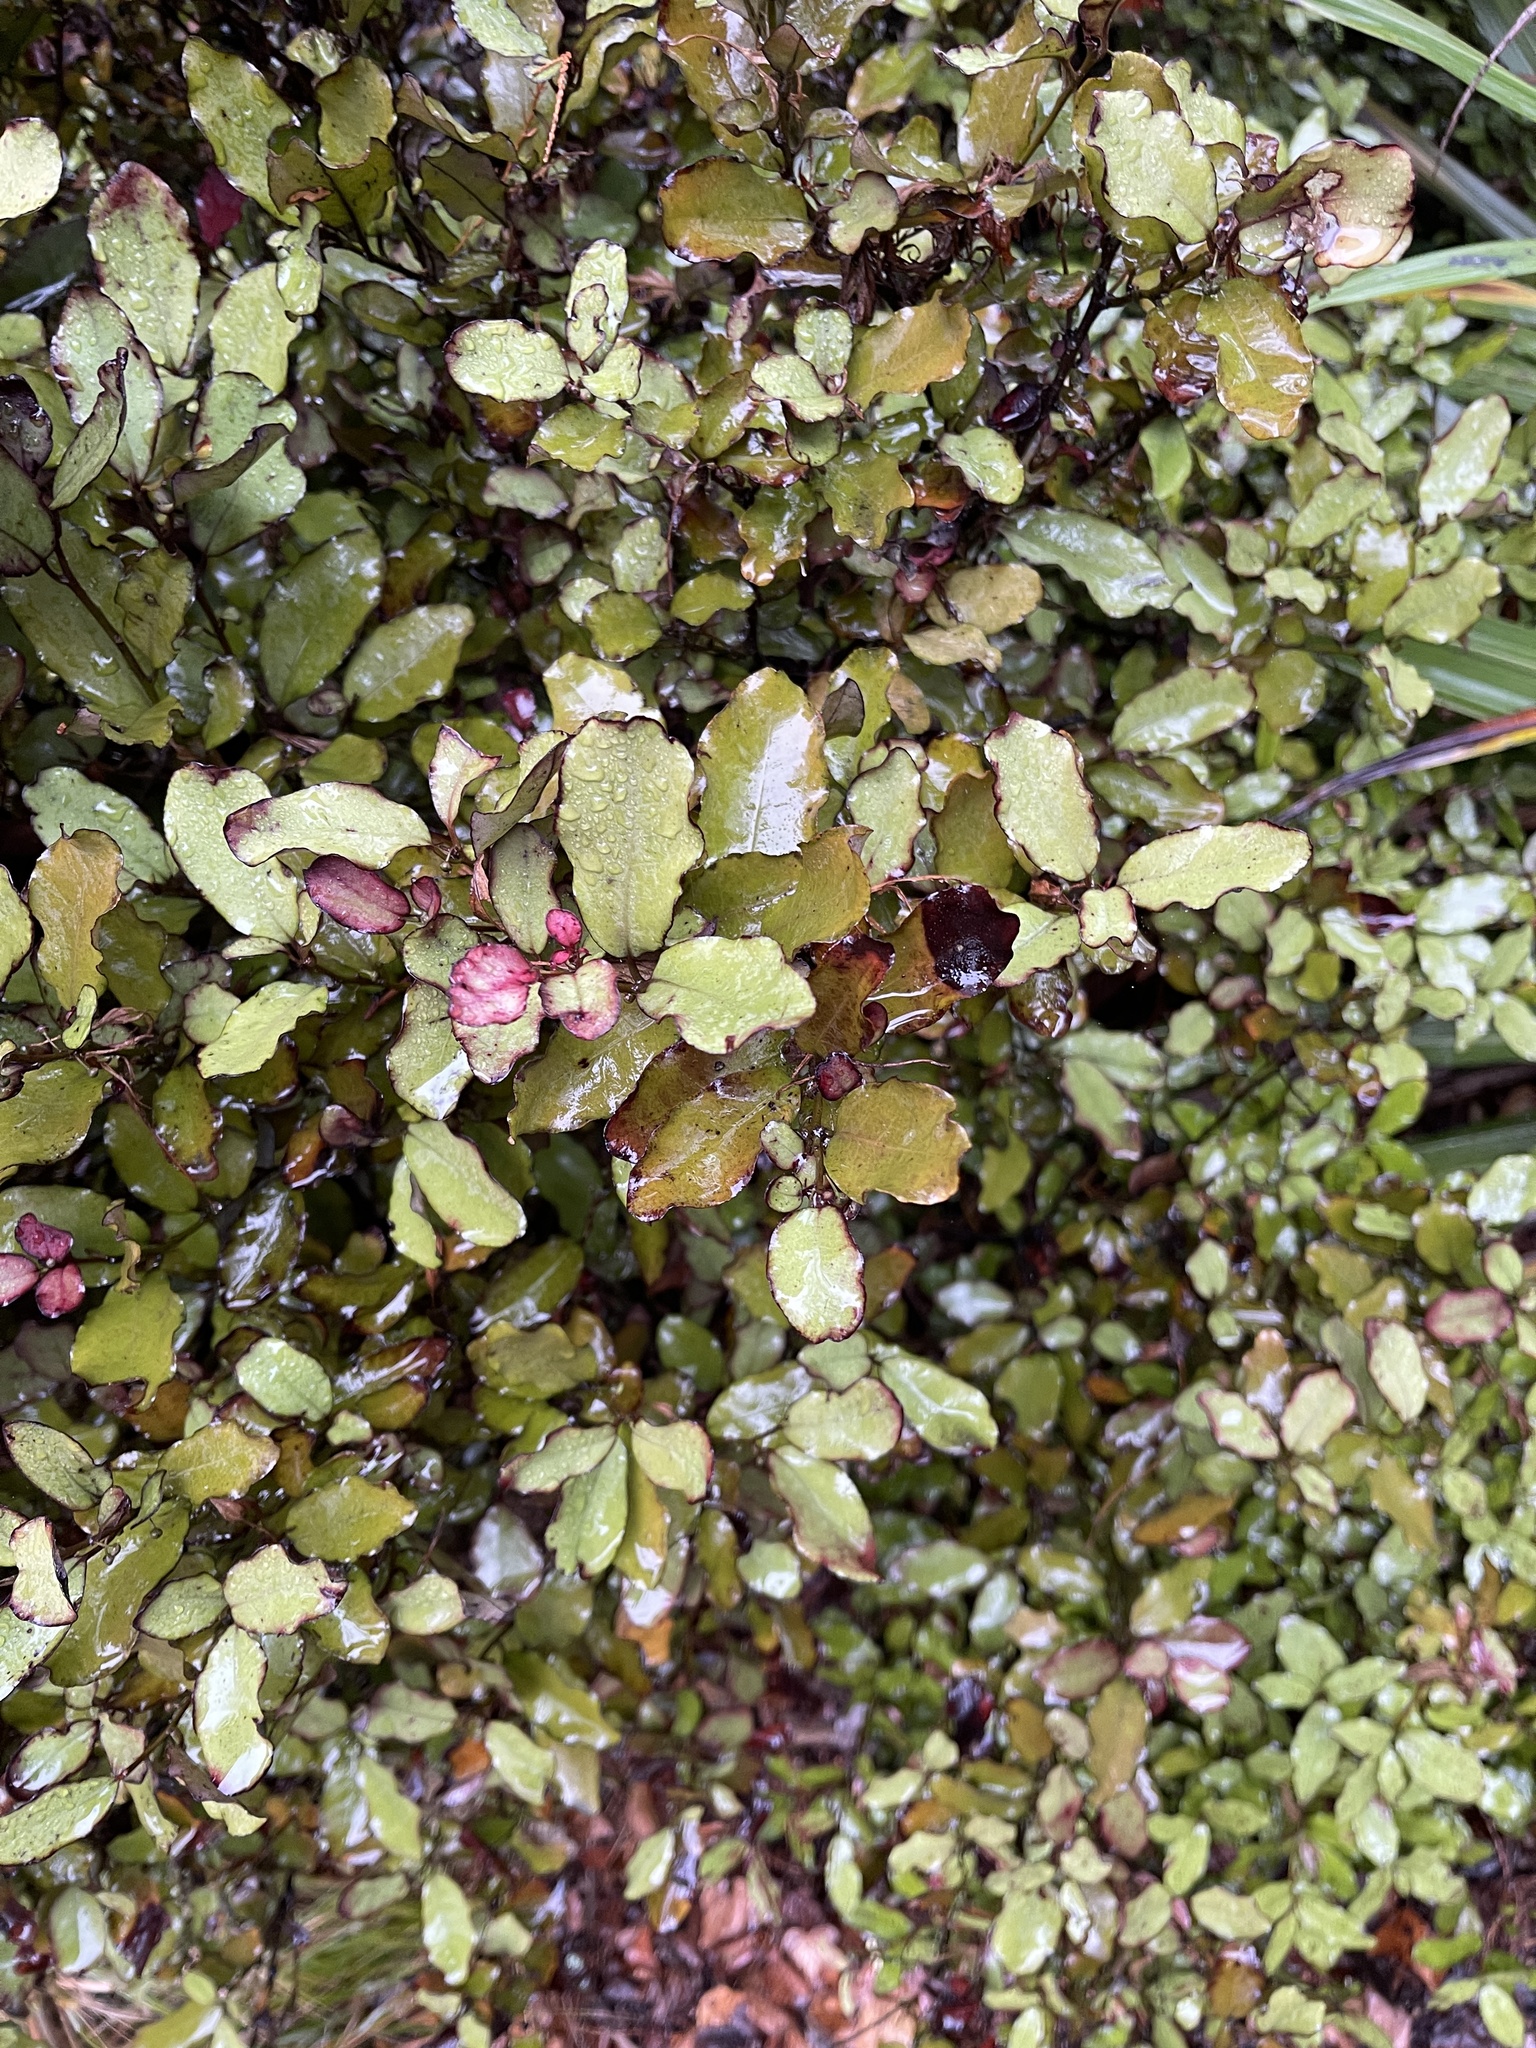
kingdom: Plantae
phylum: Tracheophyta
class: Magnoliopsida
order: Canellales
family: Winteraceae
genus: Pseudowintera
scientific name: Pseudowintera colorata
